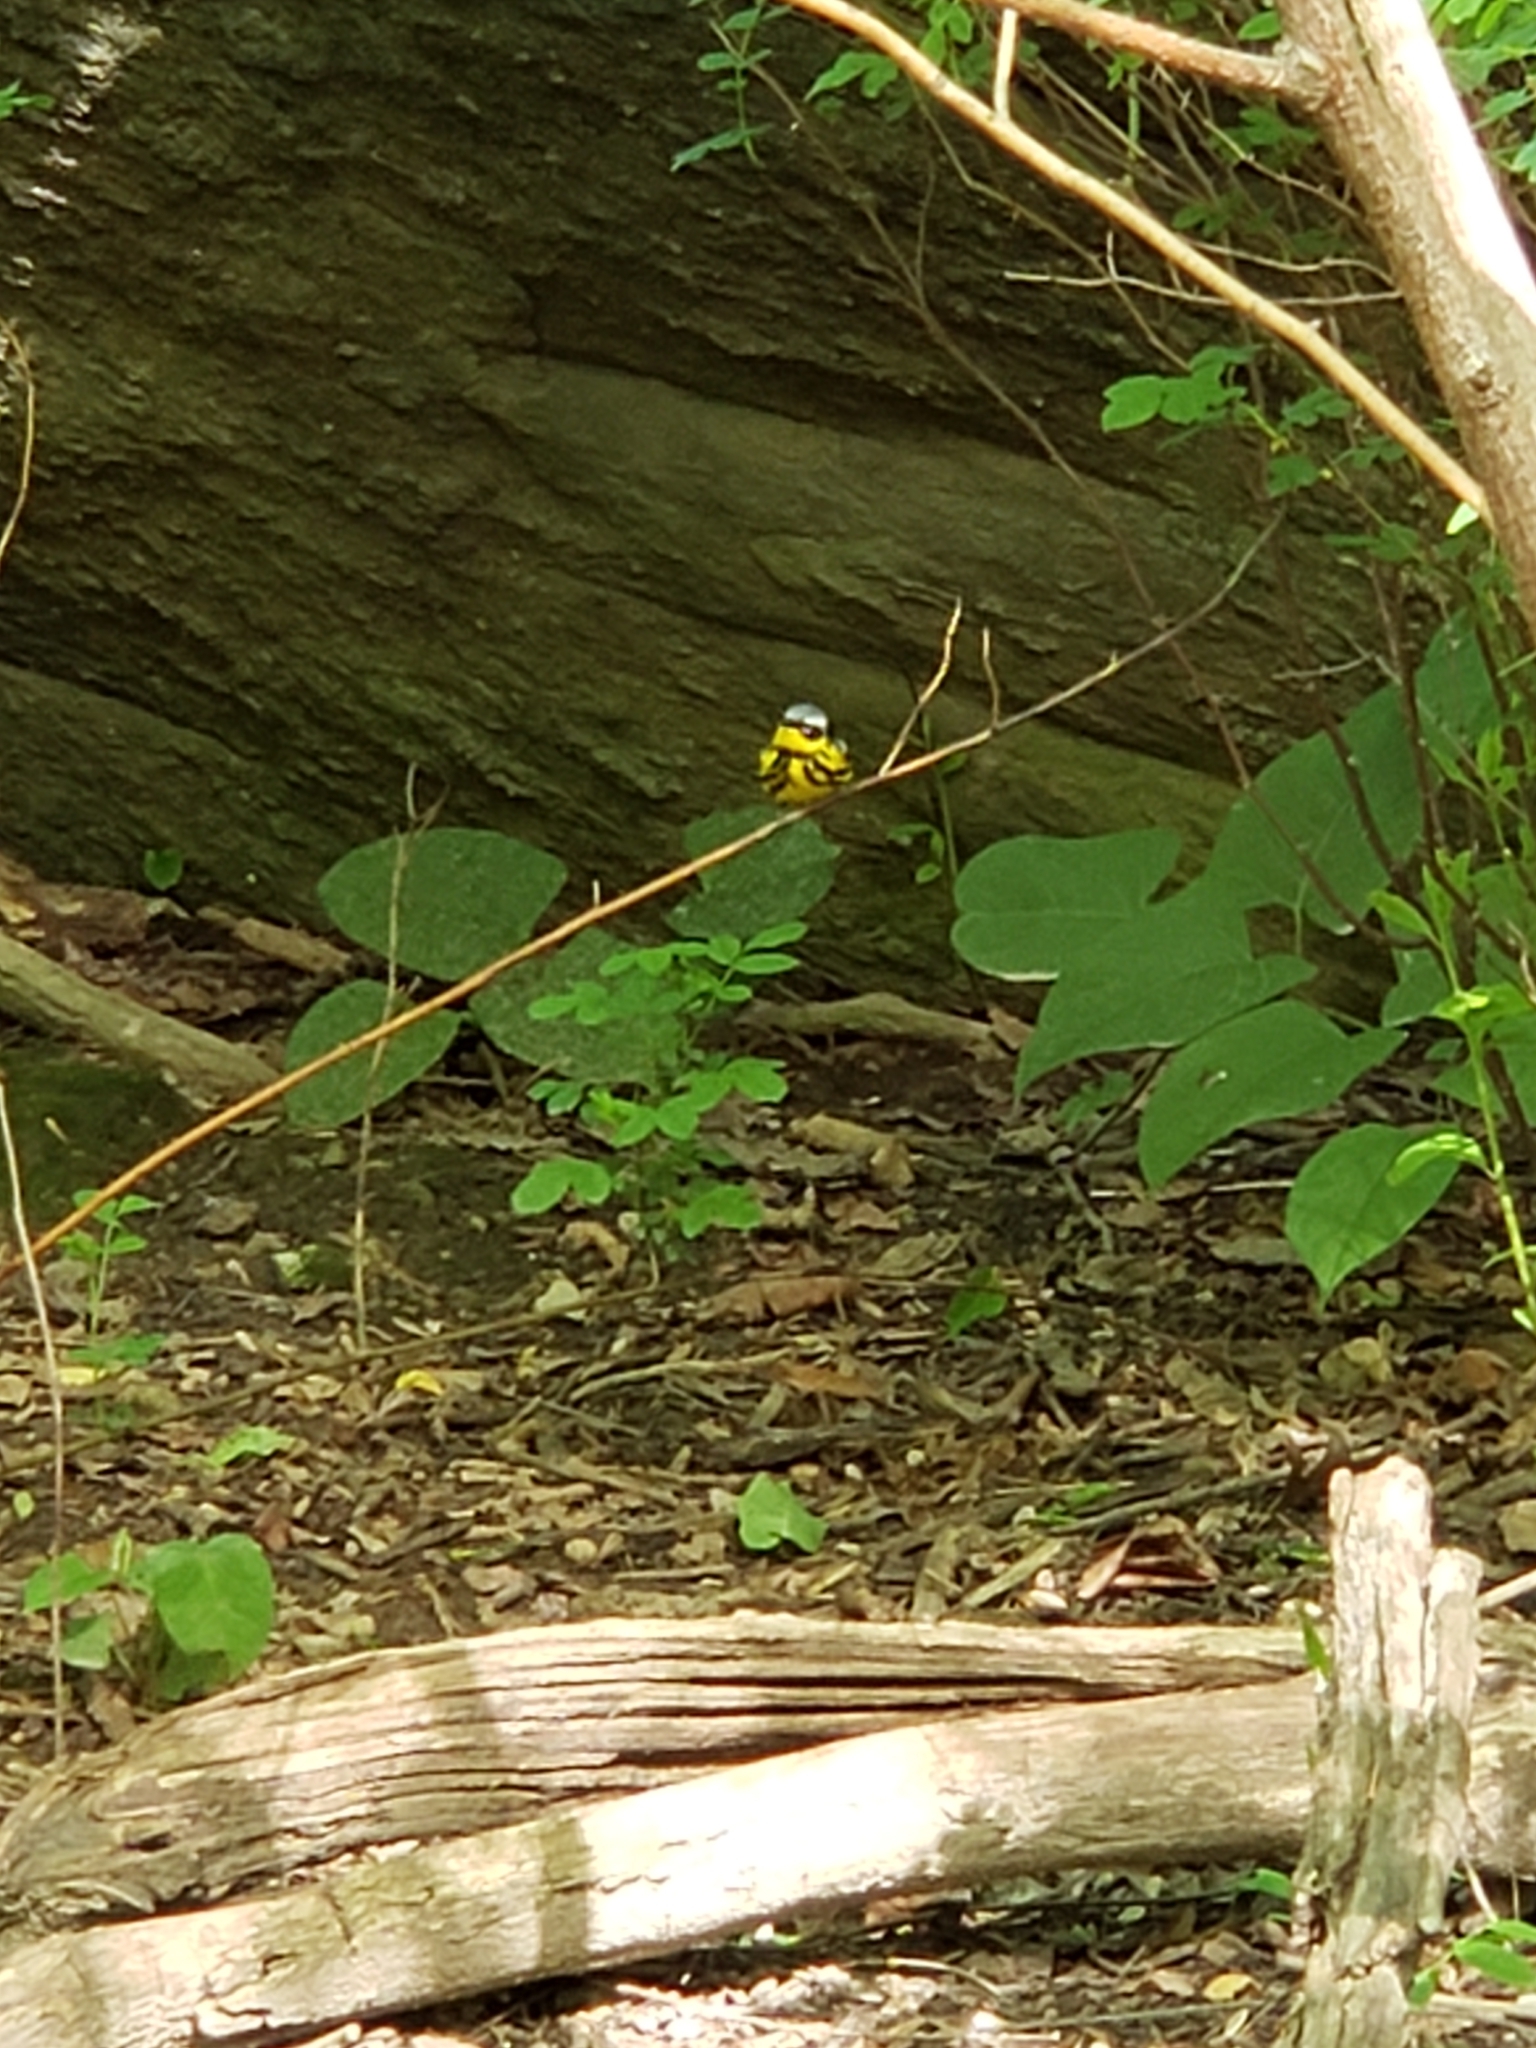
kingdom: Animalia
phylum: Chordata
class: Aves
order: Passeriformes
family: Parulidae
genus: Setophaga
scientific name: Setophaga magnolia
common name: Magnolia warbler
